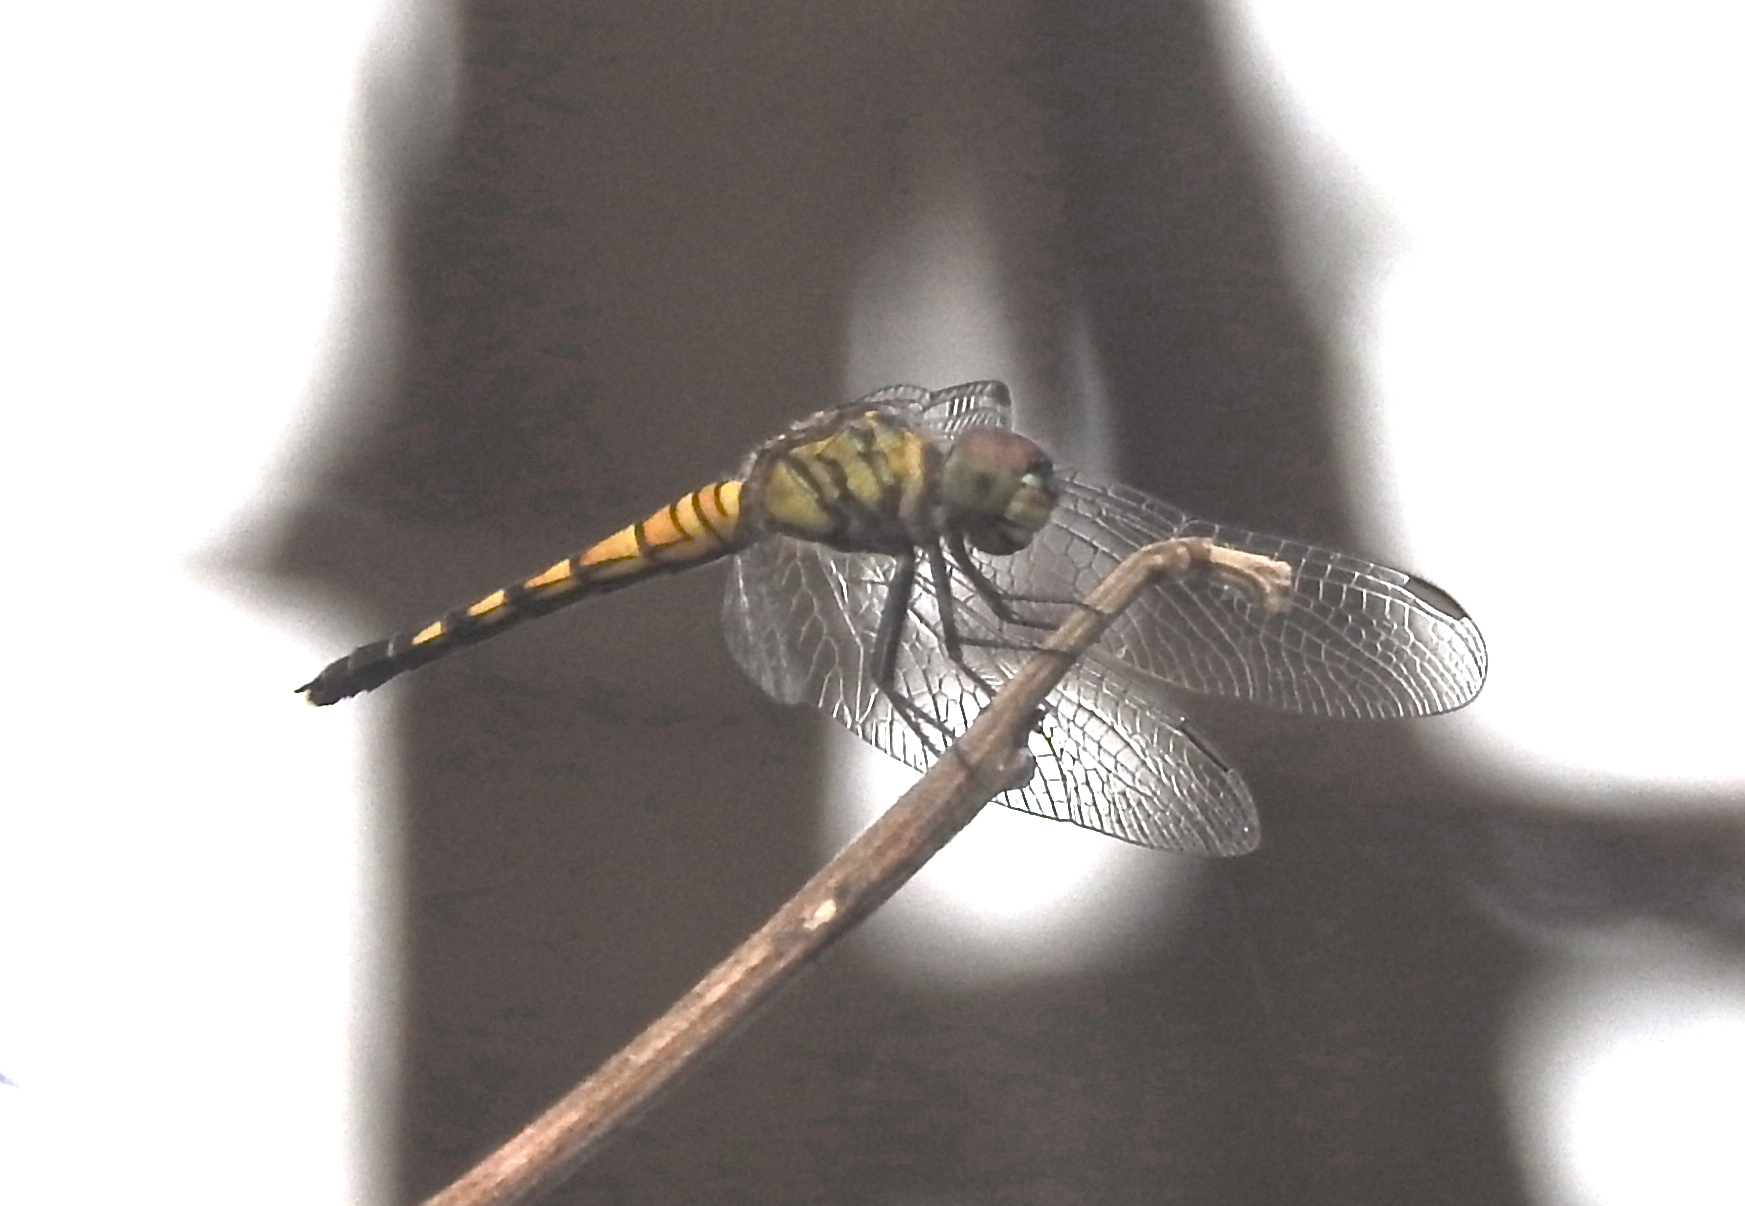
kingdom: Animalia
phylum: Arthropoda
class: Insecta
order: Odonata
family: Libellulidae
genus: Brachydiplax
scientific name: Brachydiplax sobrina
